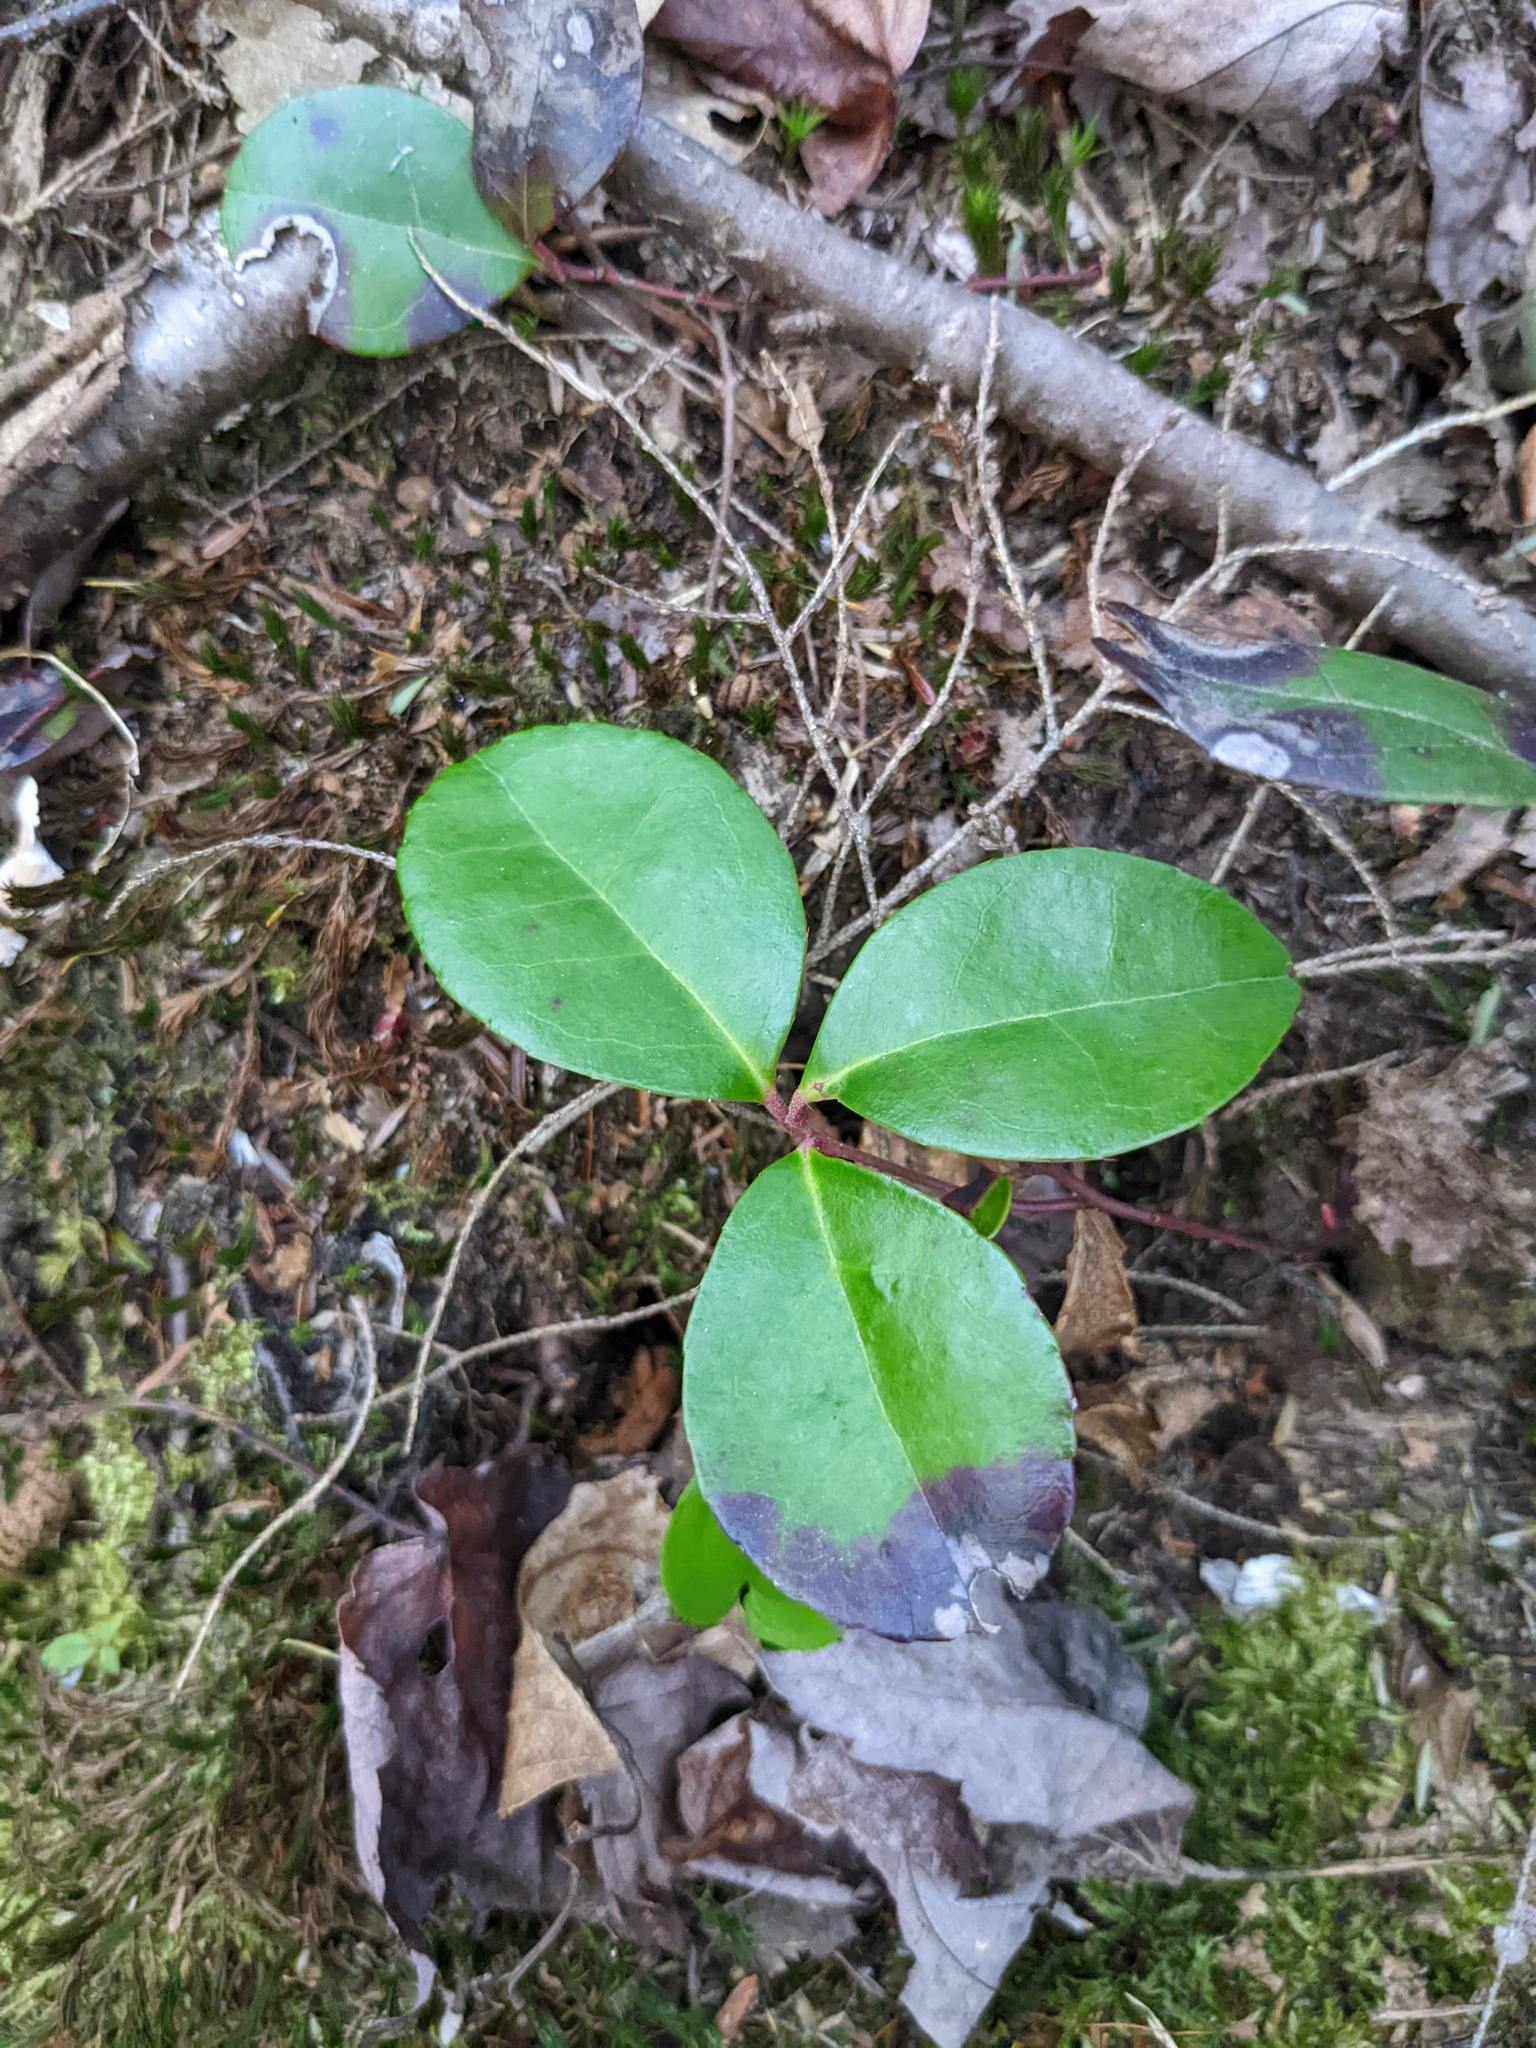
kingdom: Plantae
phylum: Tracheophyta
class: Magnoliopsida
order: Ericales
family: Ericaceae
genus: Gaultheria
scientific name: Gaultheria procumbens
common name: Checkerberry
